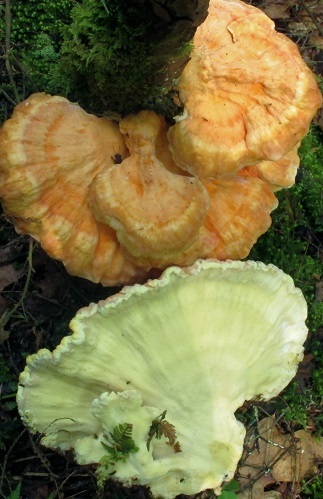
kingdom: Fungi
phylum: Basidiomycota
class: Agaricomycetes
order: Polyporales
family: Laetiporaceae
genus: Laetiporus
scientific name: Laetiporus huroniensis
